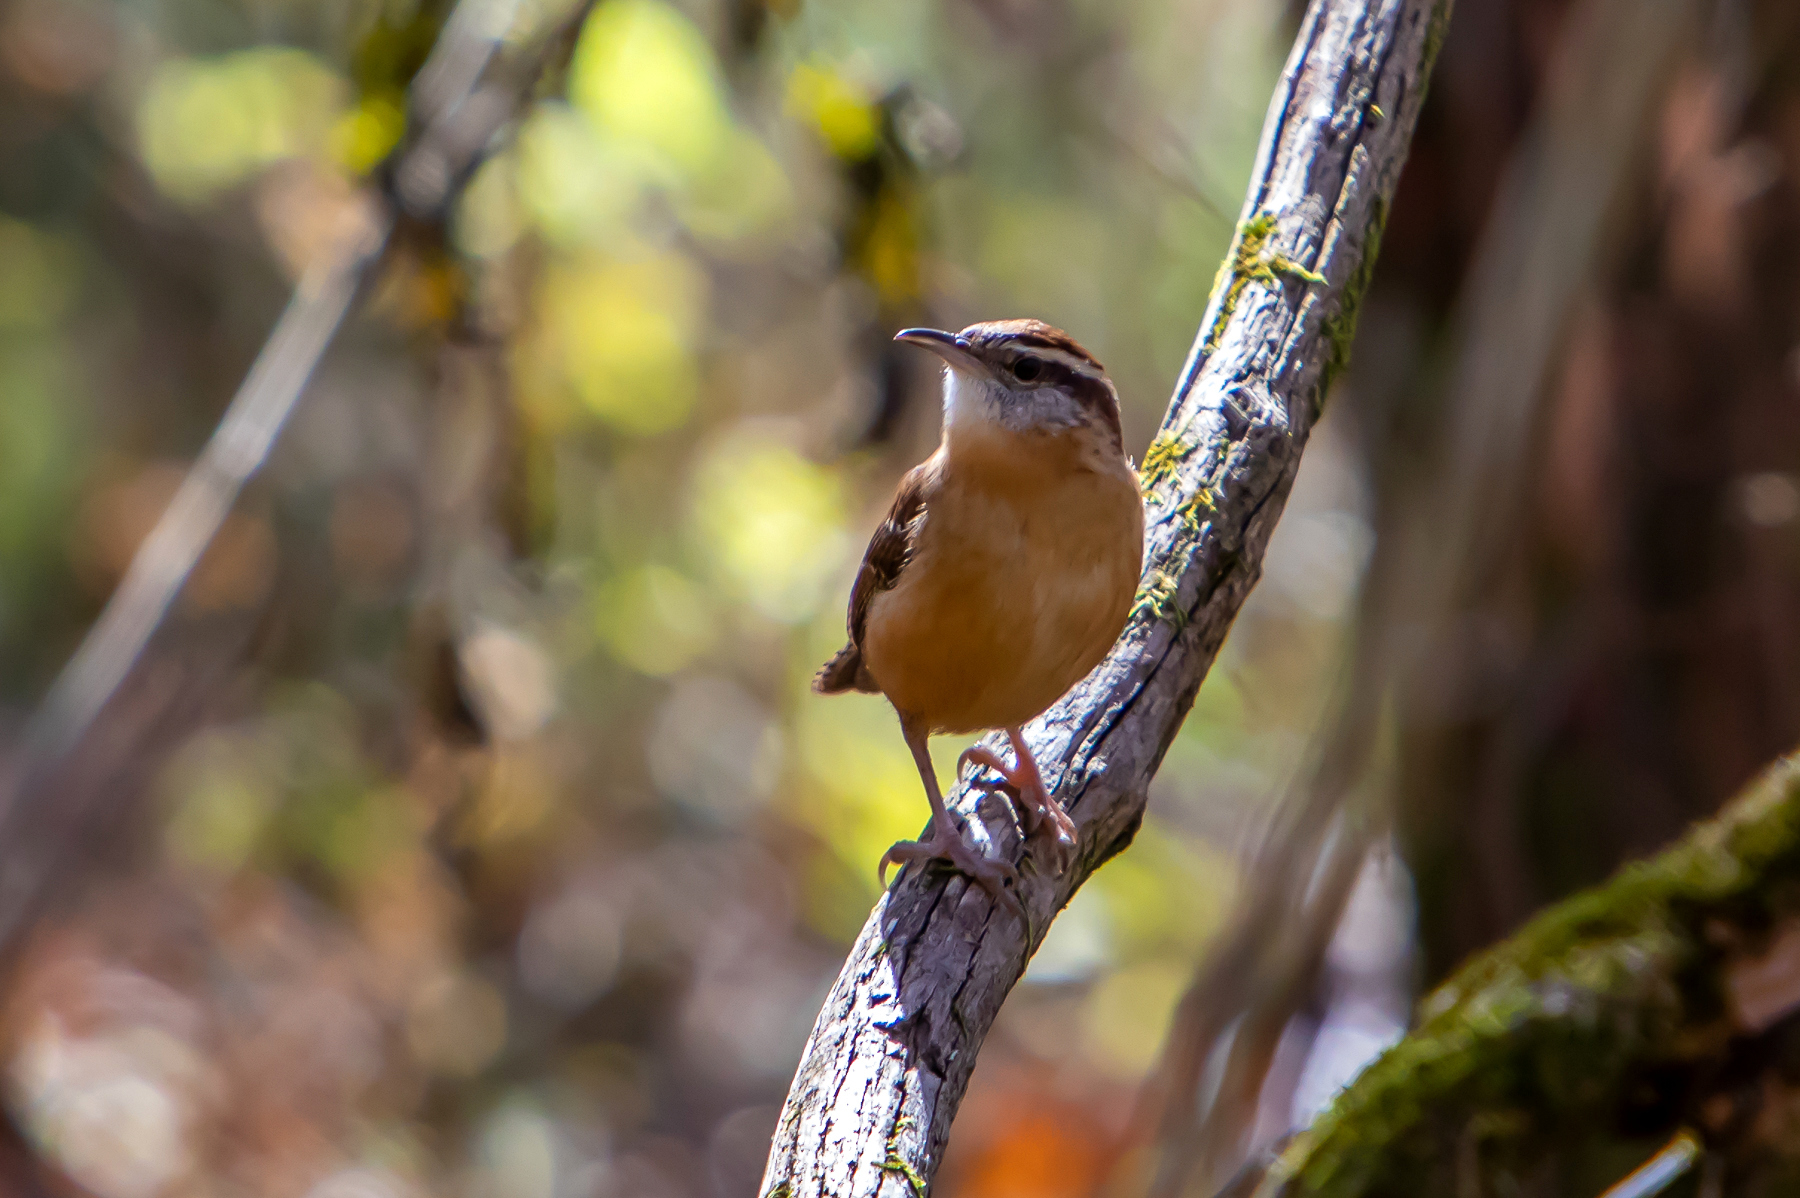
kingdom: Animalia
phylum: Chordata
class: Aves
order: Passeriformes
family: Troglodytidae
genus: Thryothorus
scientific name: Thryothorus ludovicianus
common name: Carolina wren
